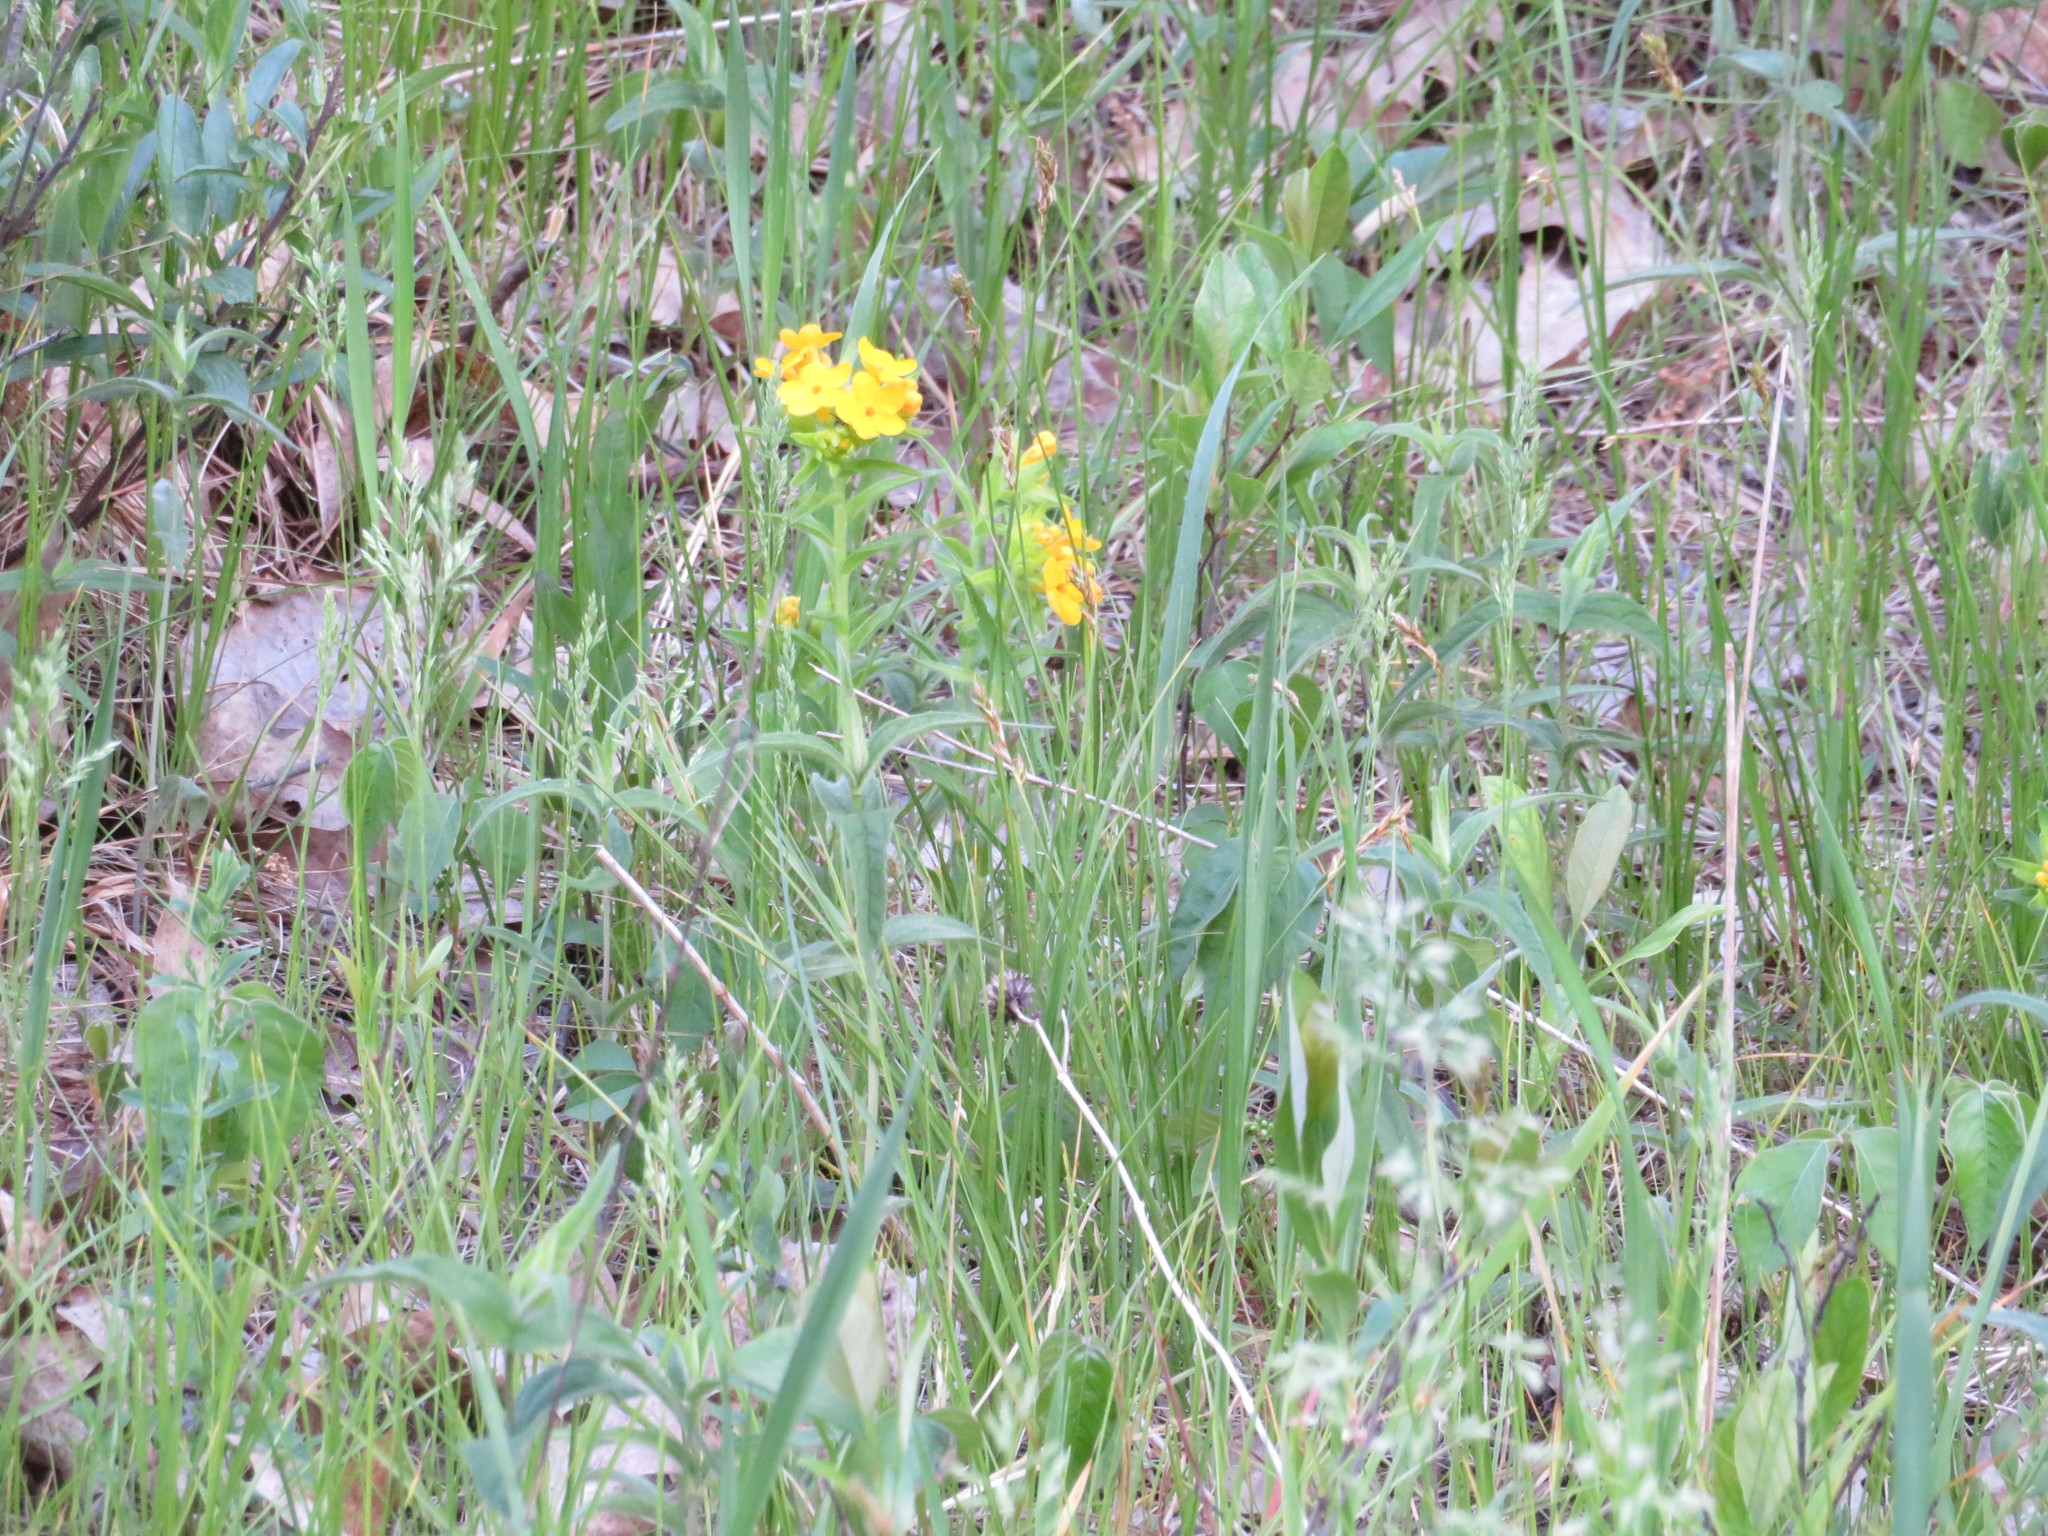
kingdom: Plantae
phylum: Tracheophyta
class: Magnoliopsida
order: Boraginales
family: Boraginaceae
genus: Lithospermum
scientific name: Lithospermum caroliniense
